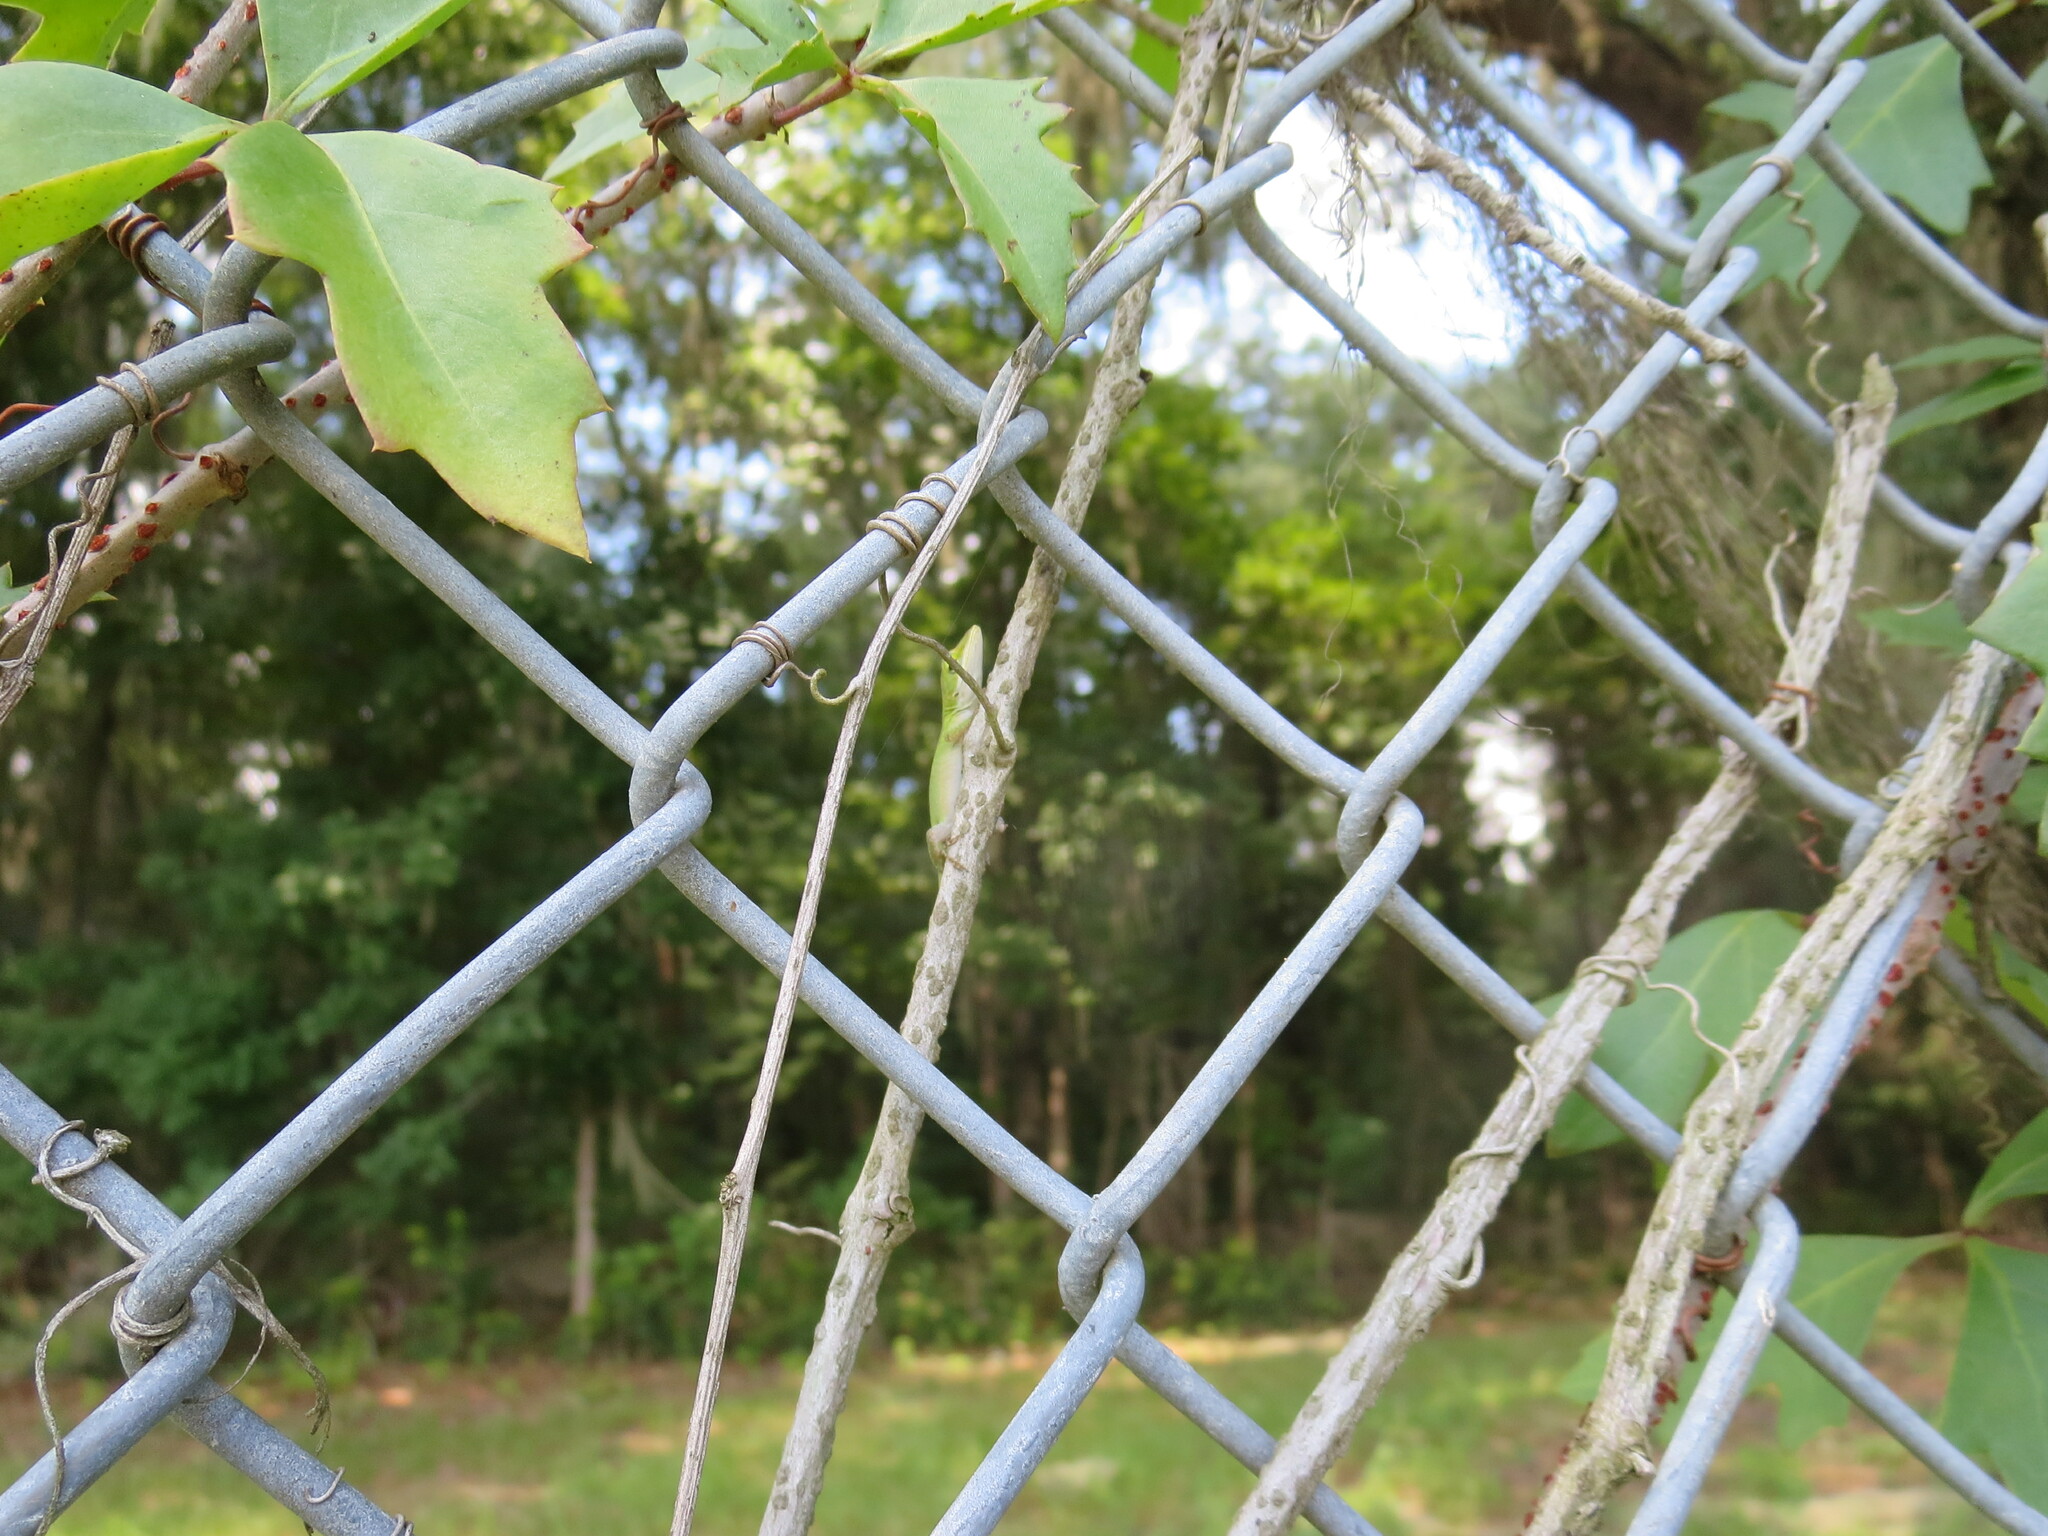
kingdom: Animalia
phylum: Chordata
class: Squamata
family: Dactyloidae
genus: Anolis
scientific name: Anolis carolinensis
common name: Green anole
